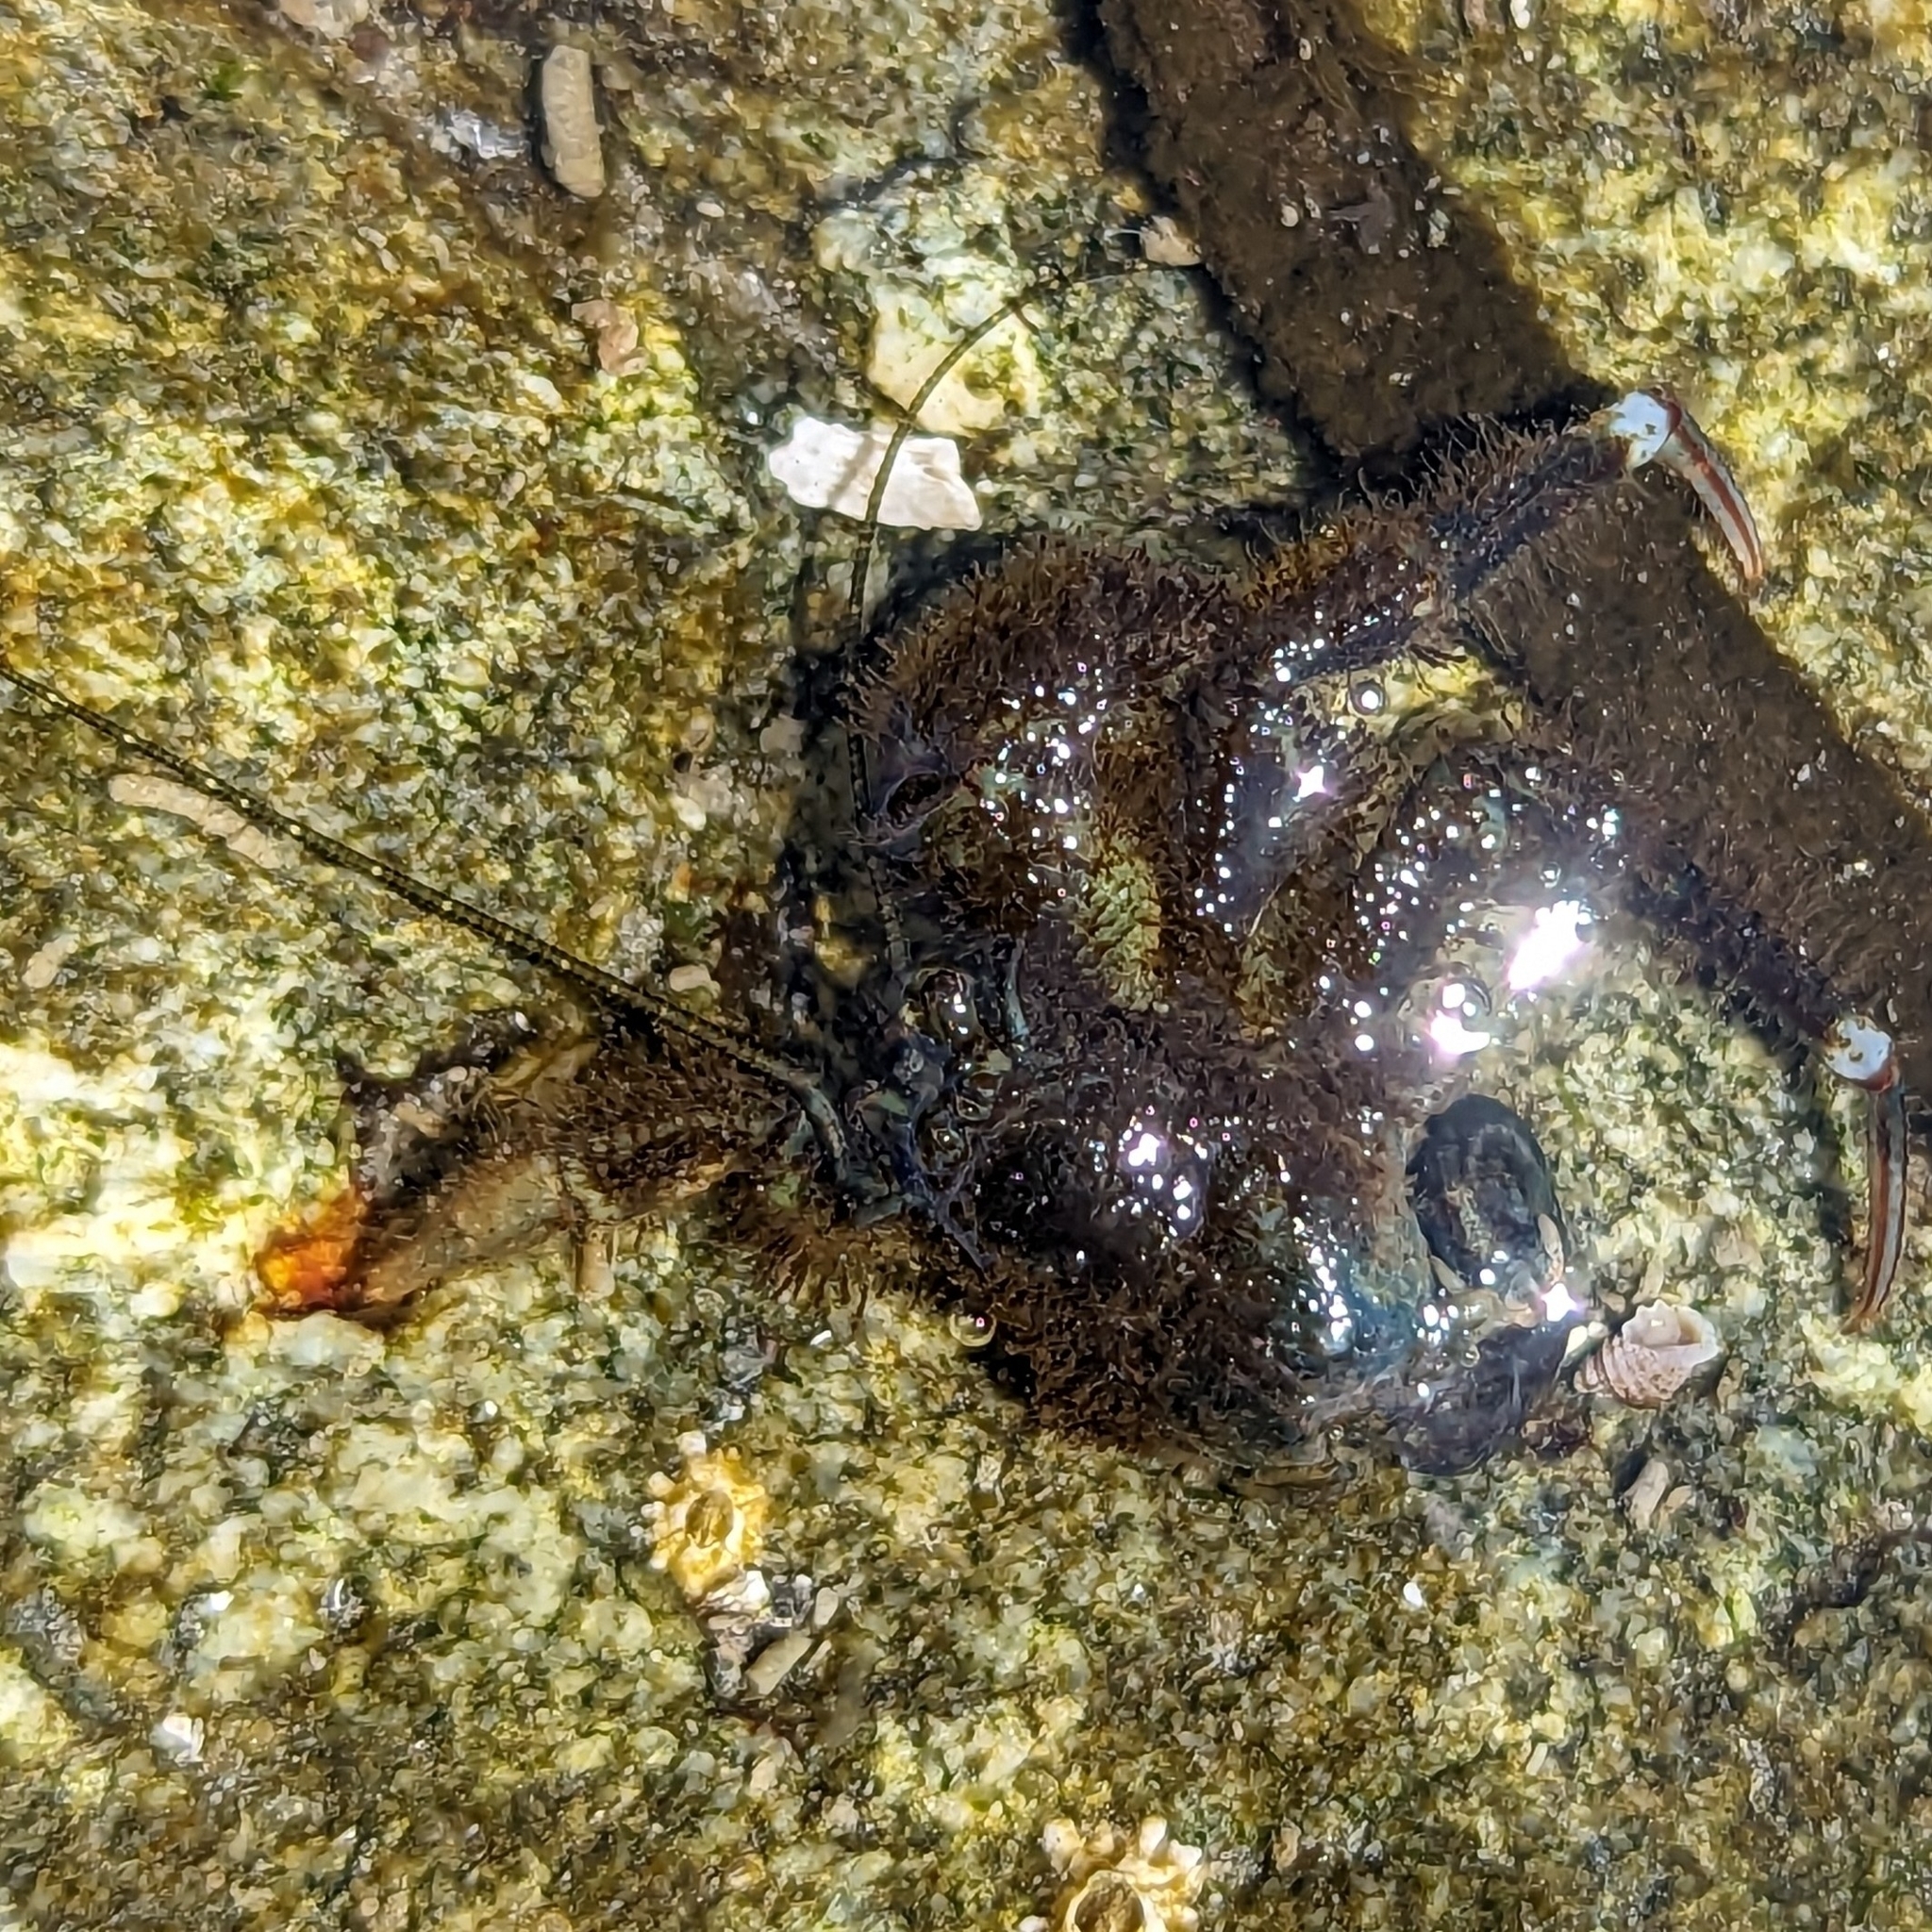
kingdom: Animalia
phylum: Arthropoda
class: Malacostraca
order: Decapoda
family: Paguridae
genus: Pagurus
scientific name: Pagurus hirsutiusculus
